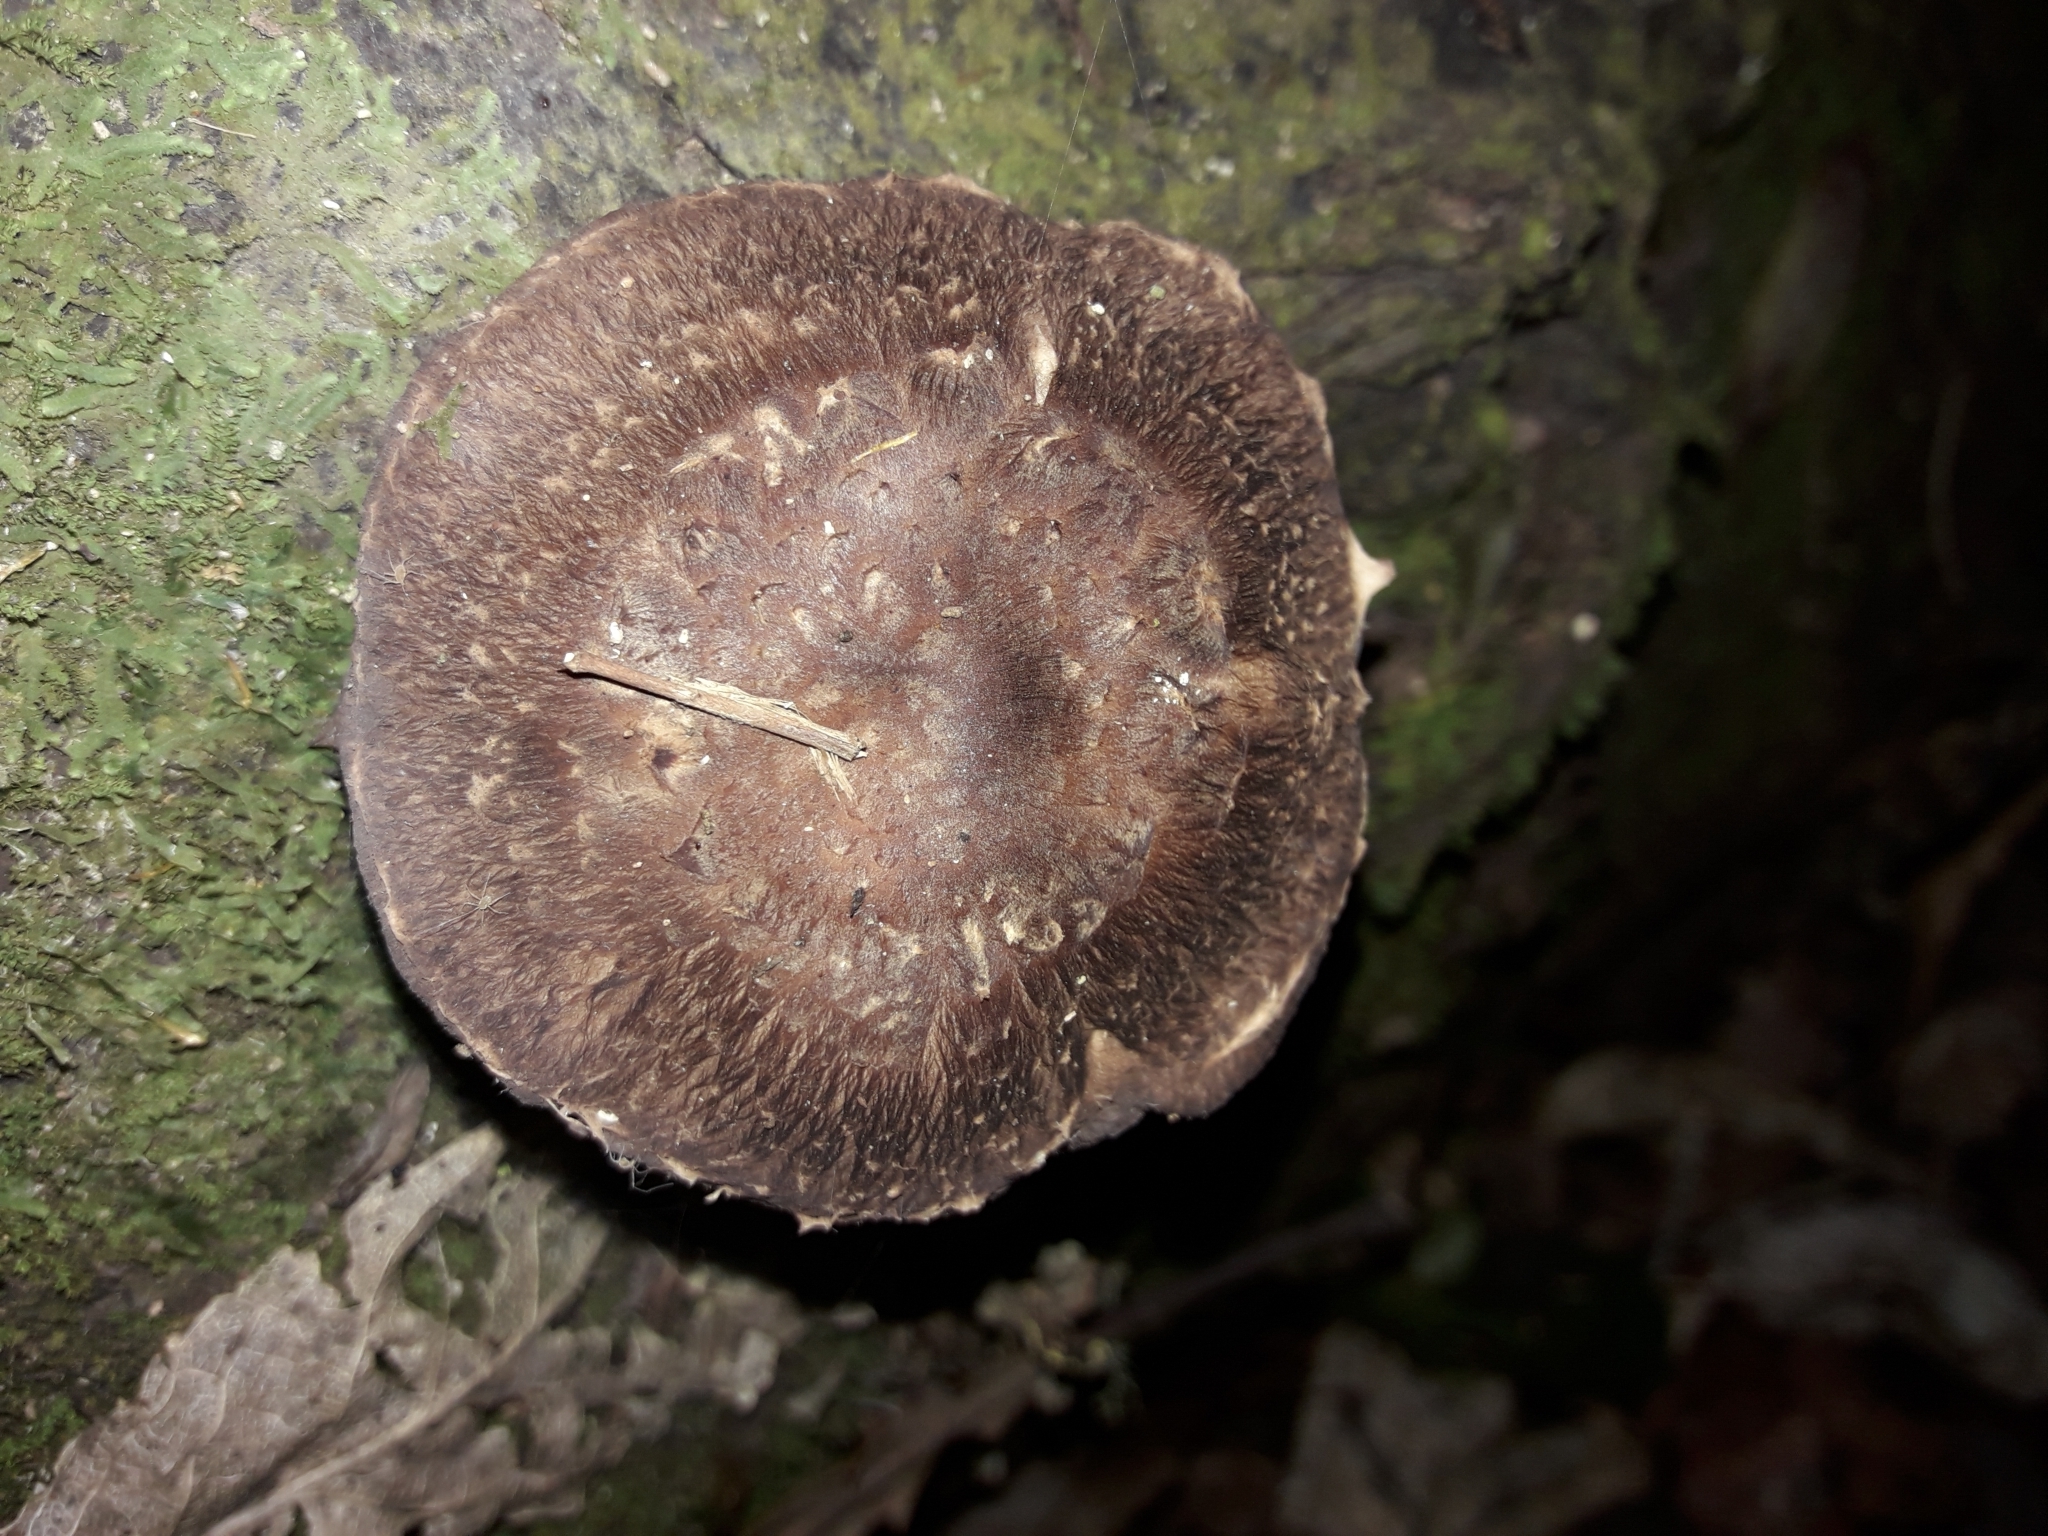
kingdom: Fungi
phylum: Basidiomycota
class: Agaricomycetes
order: Agaricales
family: Omphalotaceae
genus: Lentinula
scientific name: Lentinula novae-zelandiae
